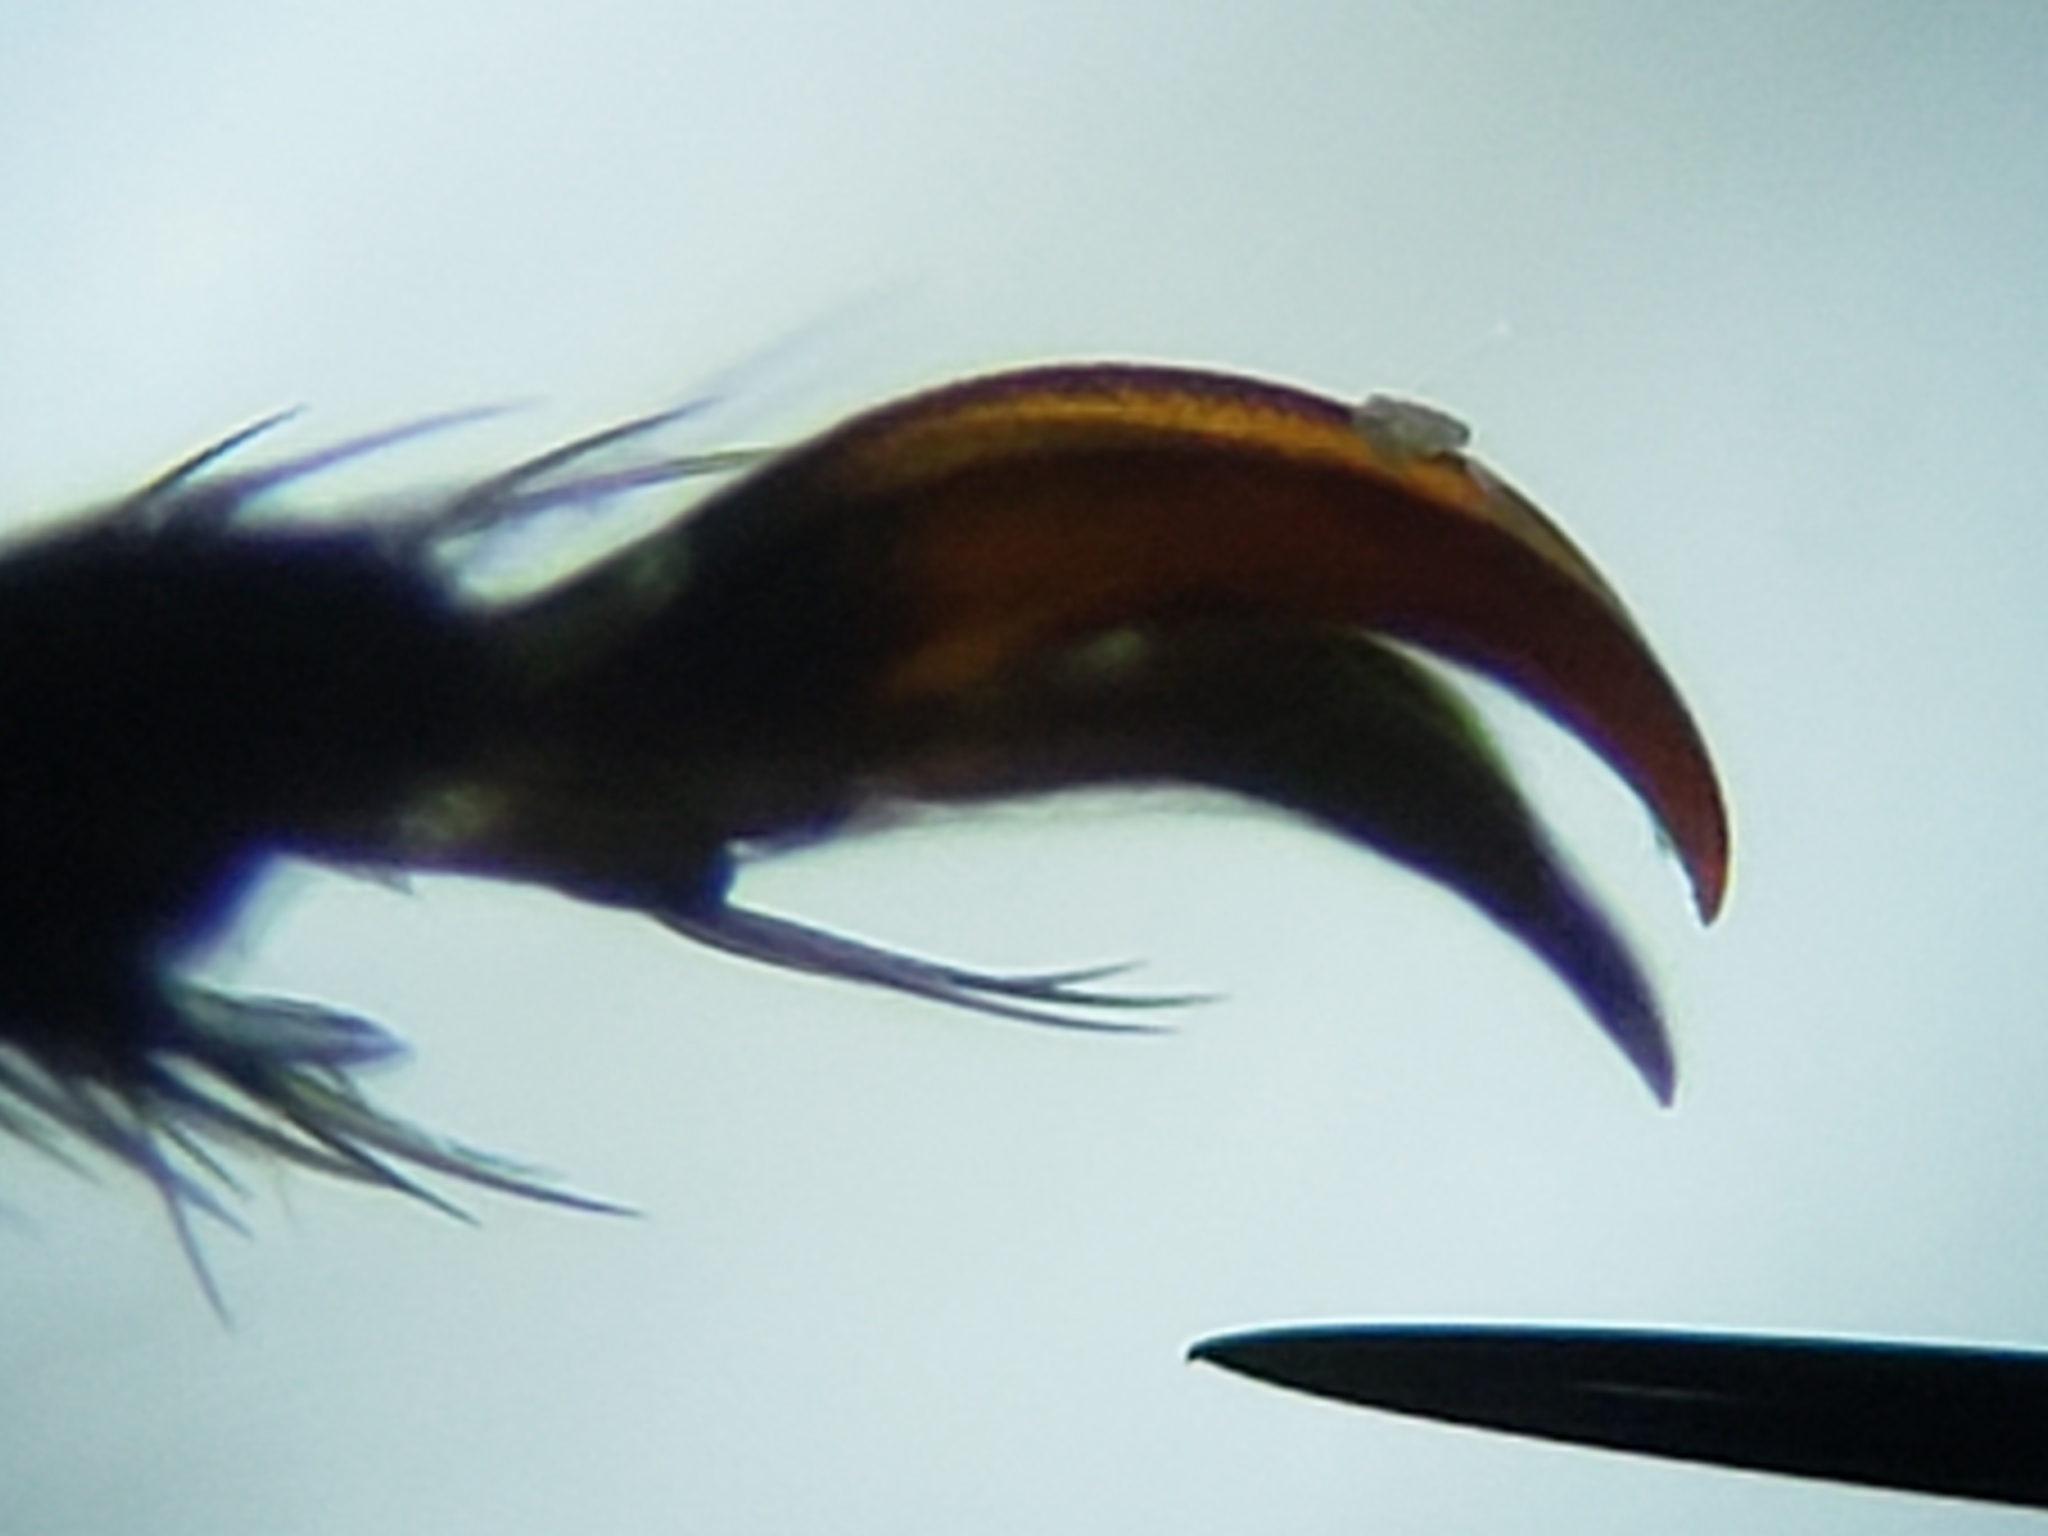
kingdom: Animalia
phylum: Arthropoda
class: Insecta
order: Coleoptera
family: Meloidae
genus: Epicauta
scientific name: Epicauta tenuis
